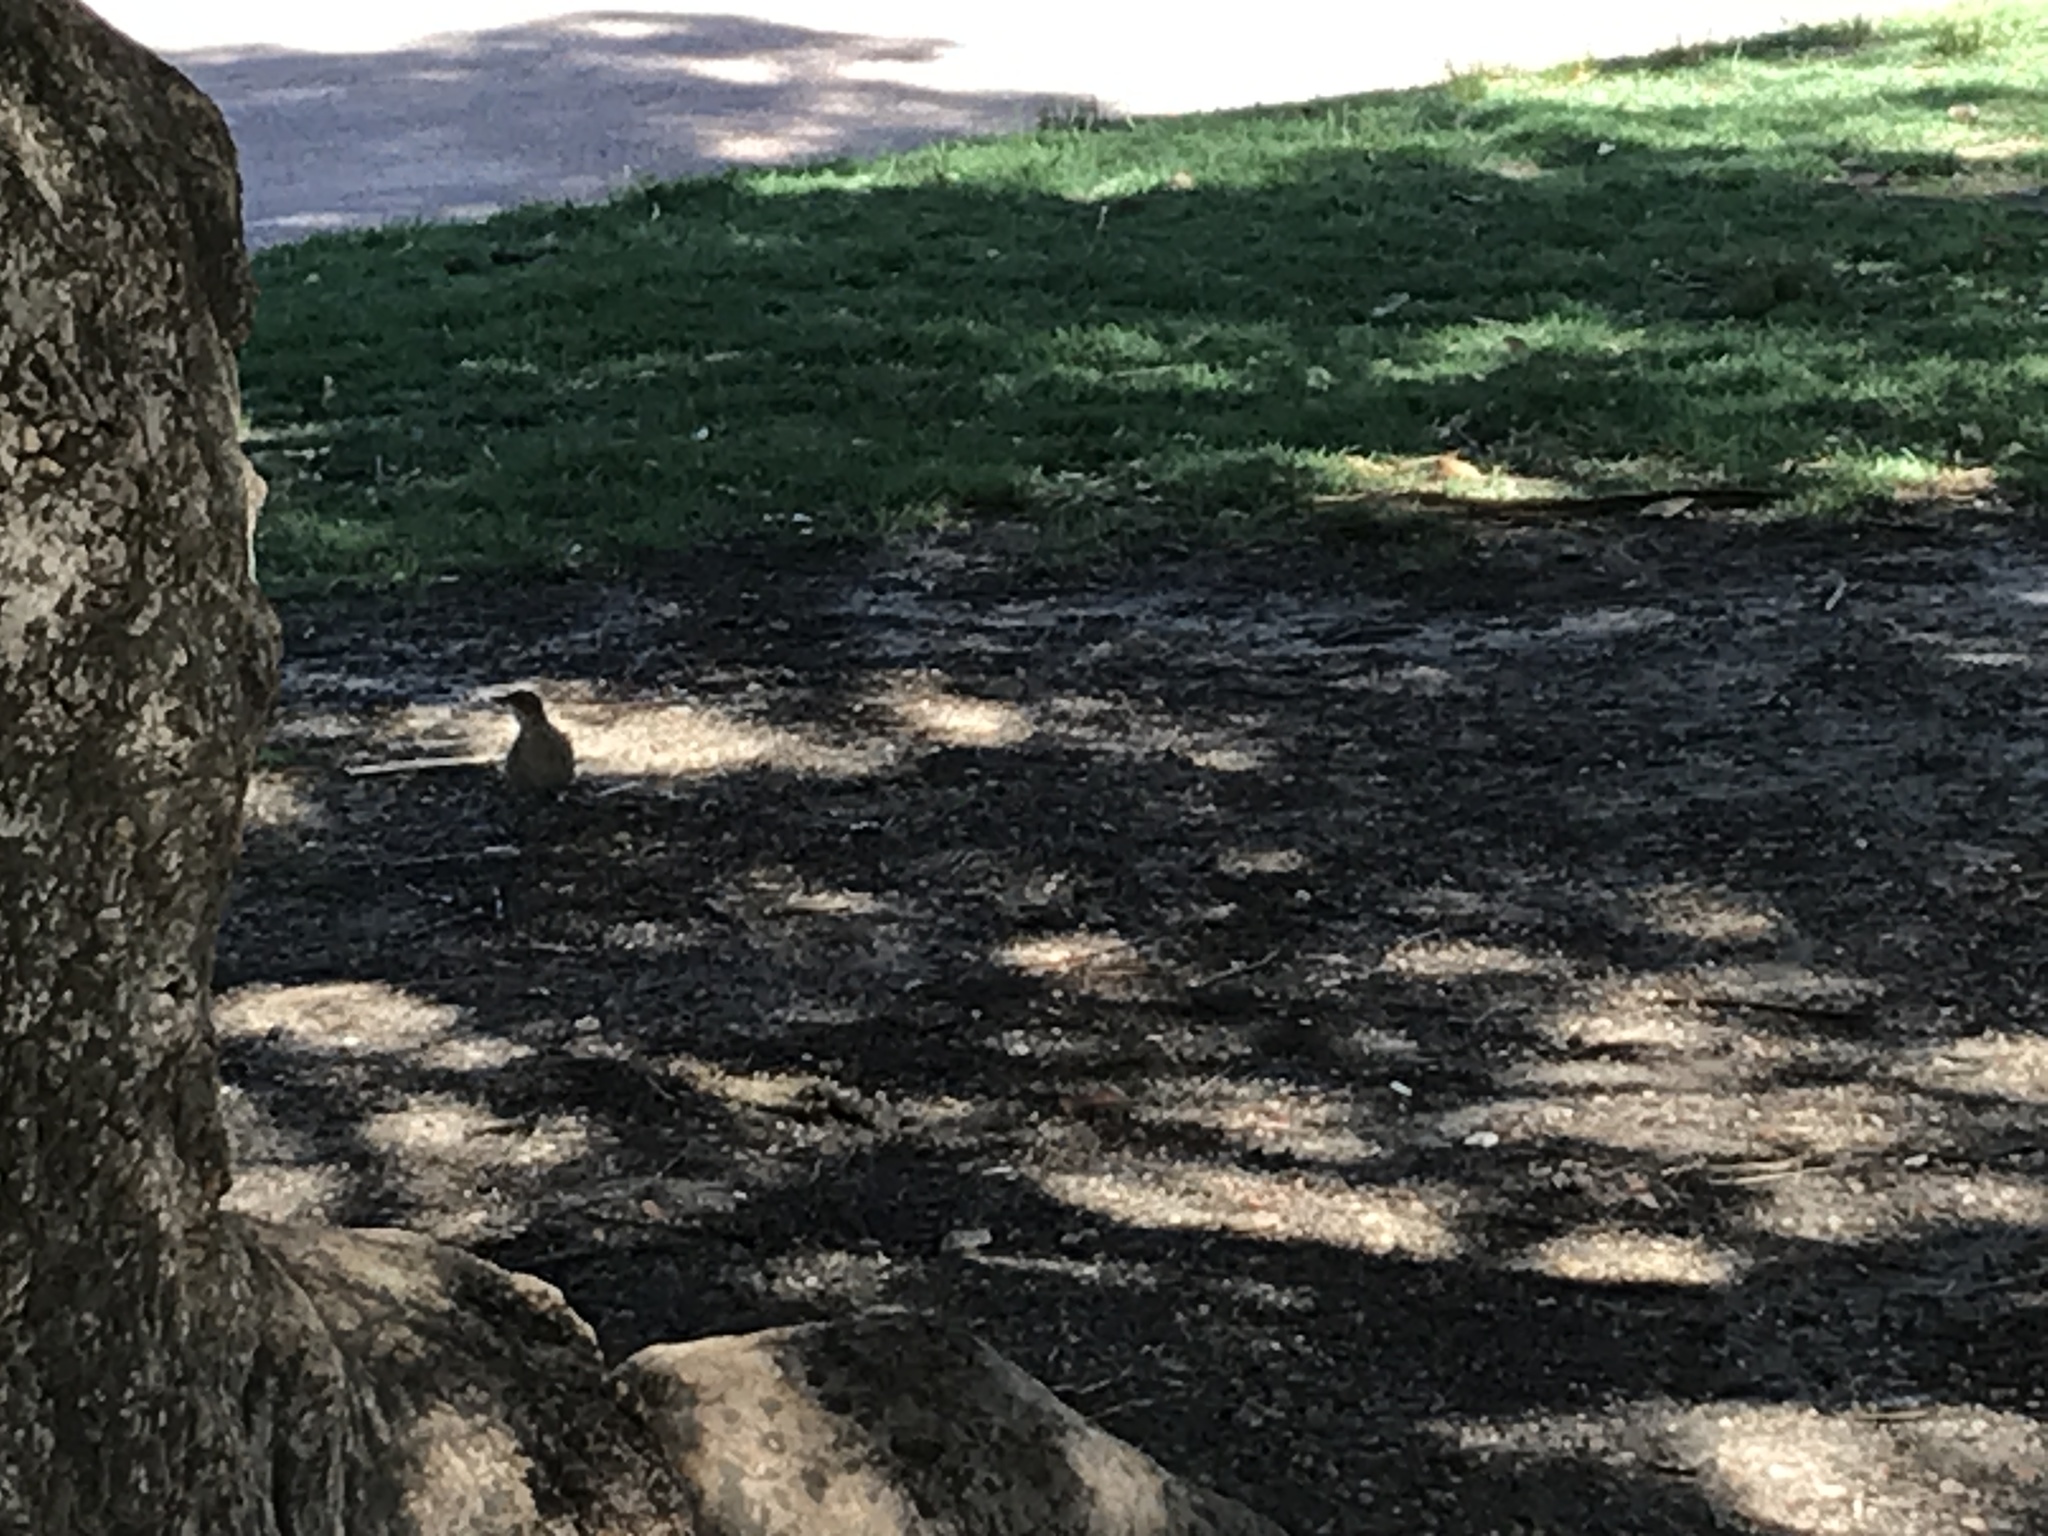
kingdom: Animalia
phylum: Chordata
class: Aves
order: Passeriformes
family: Furnariidae
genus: Furnarius
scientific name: Furnarius rufus
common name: Rufous hornero
